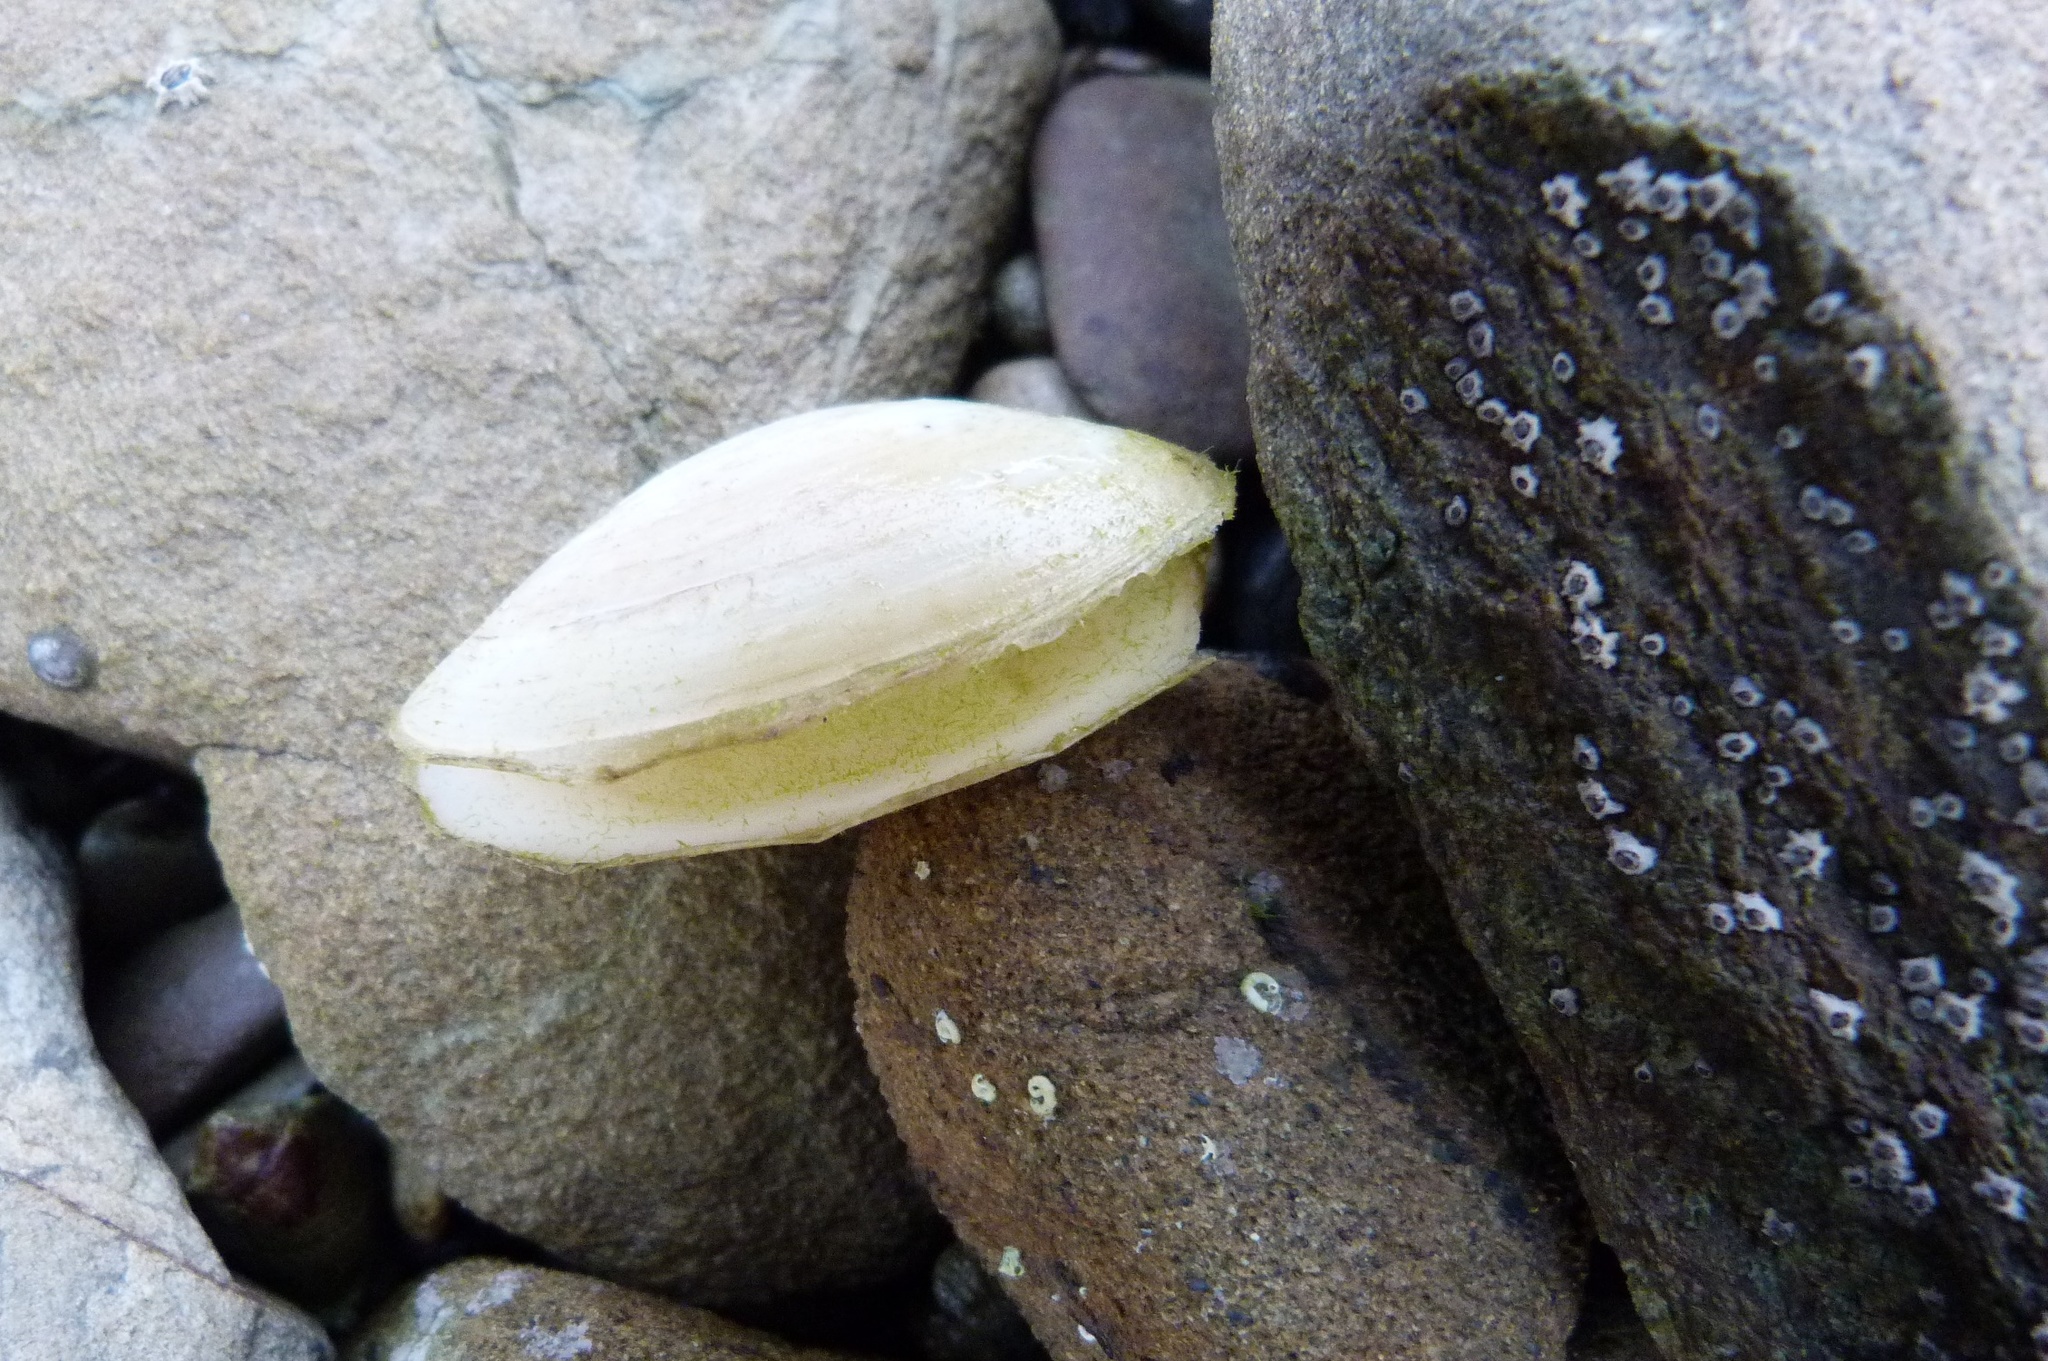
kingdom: Animalia
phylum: Mollusca
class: Bivalvia
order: Venerida
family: Mesodesmatidae
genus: Paphies
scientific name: Paphies australis
